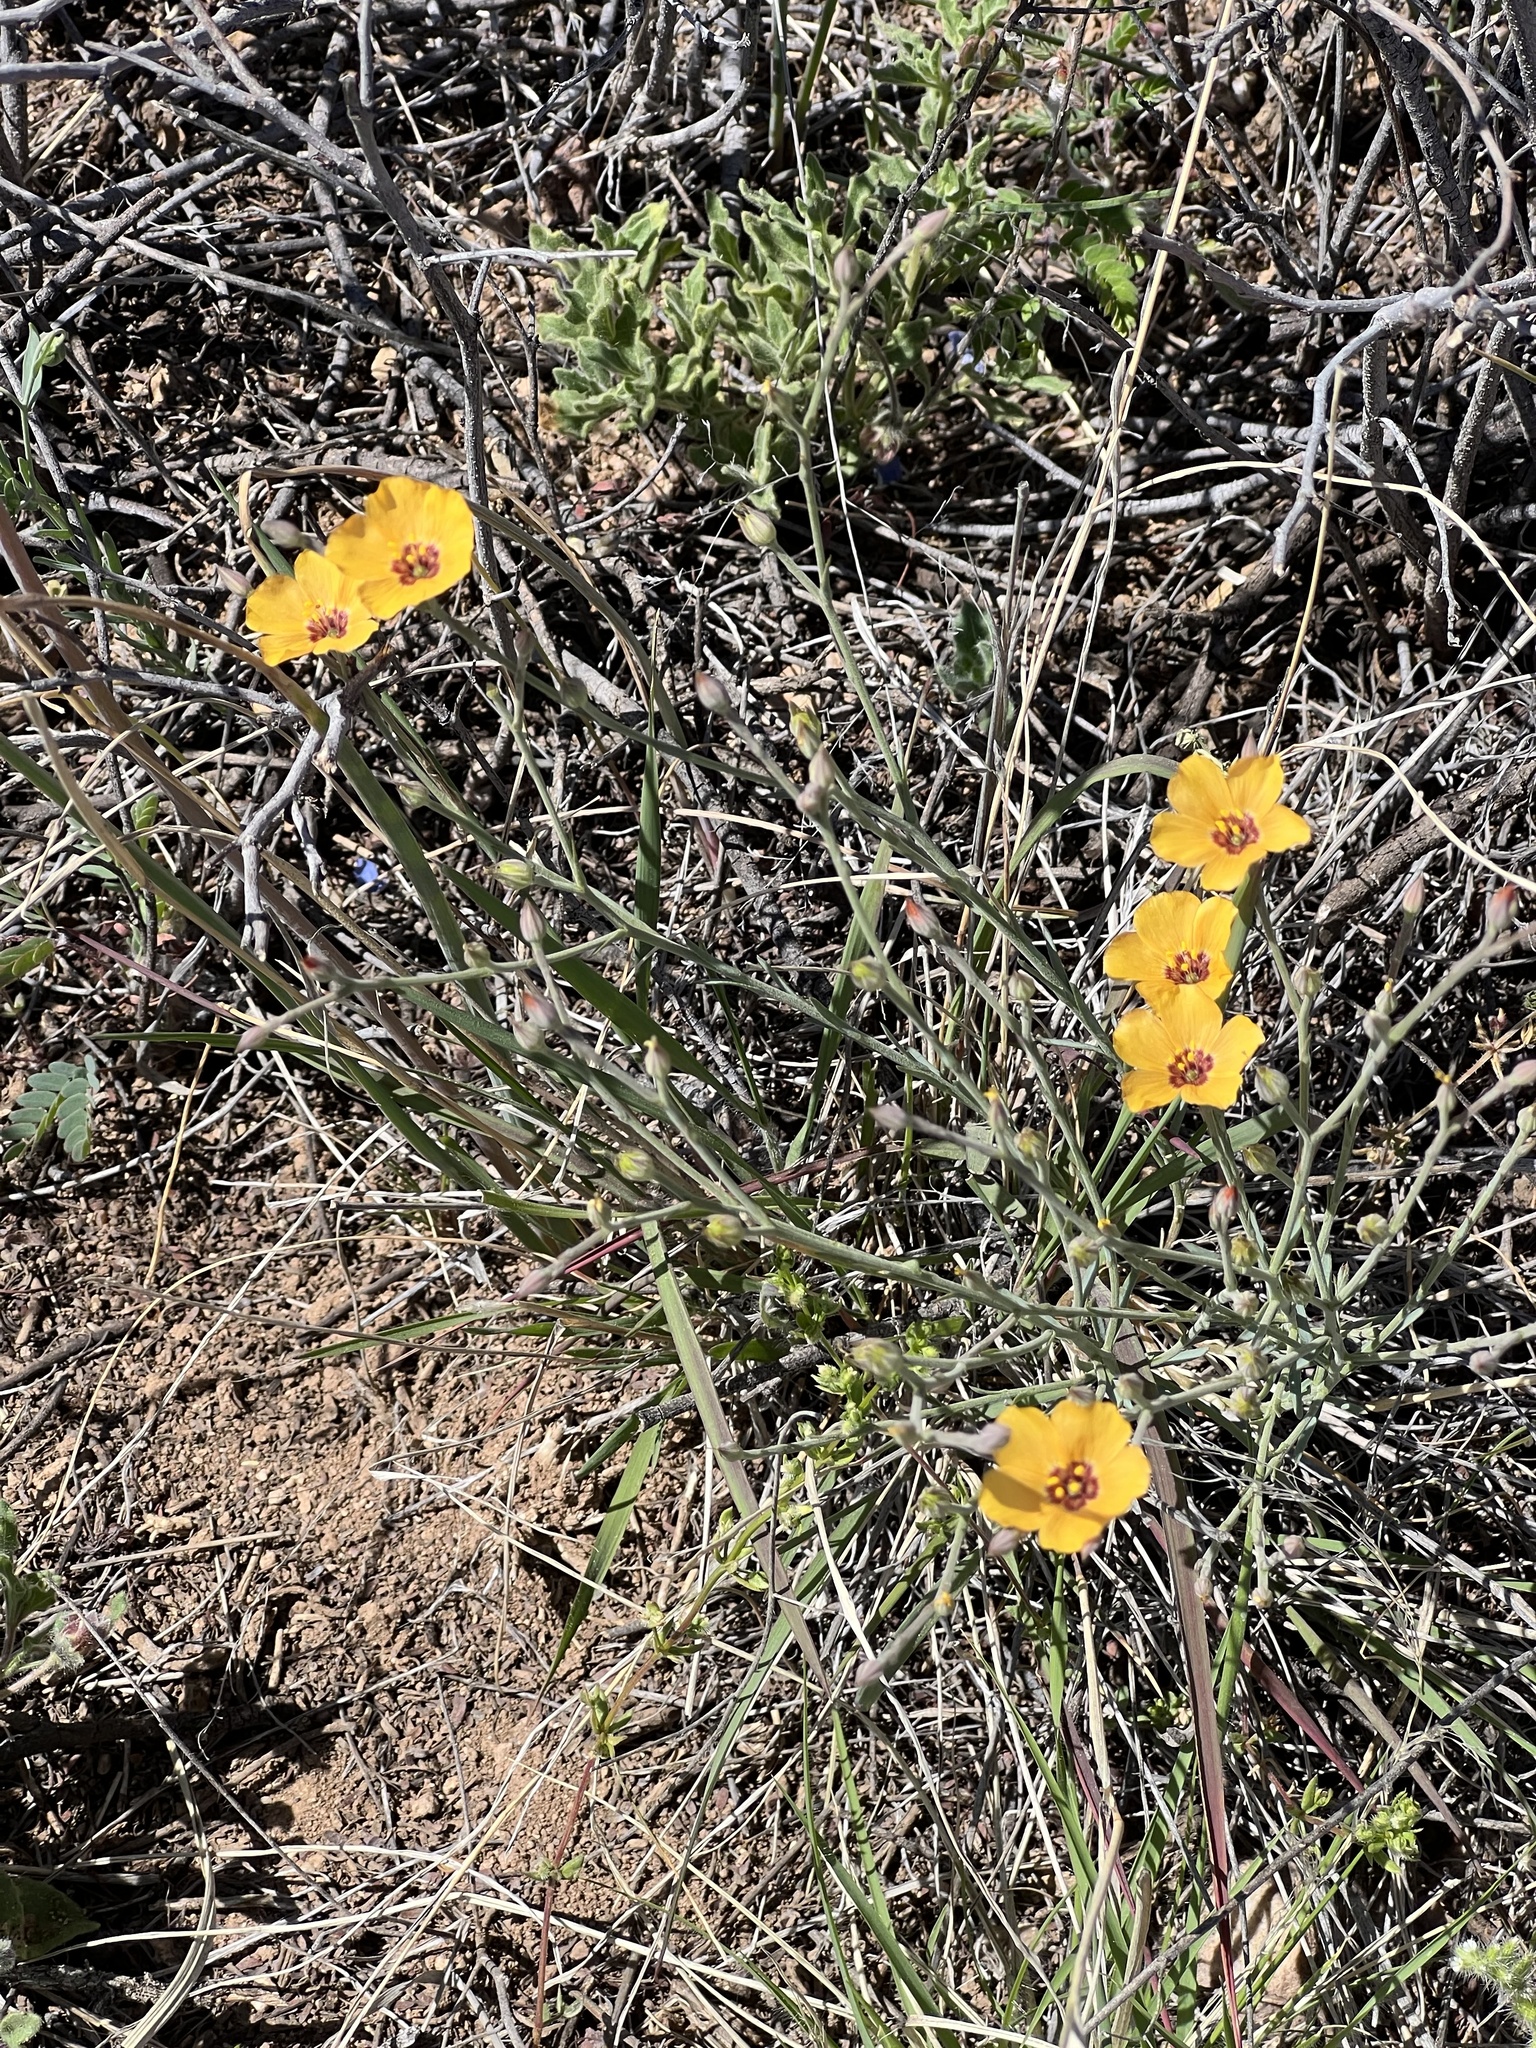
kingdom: Plantae
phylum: Tracheophyta
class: Magnoliopsida
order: Malpighiales
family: Linaceae
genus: Linum
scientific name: Linum puberulum
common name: Plains flax
